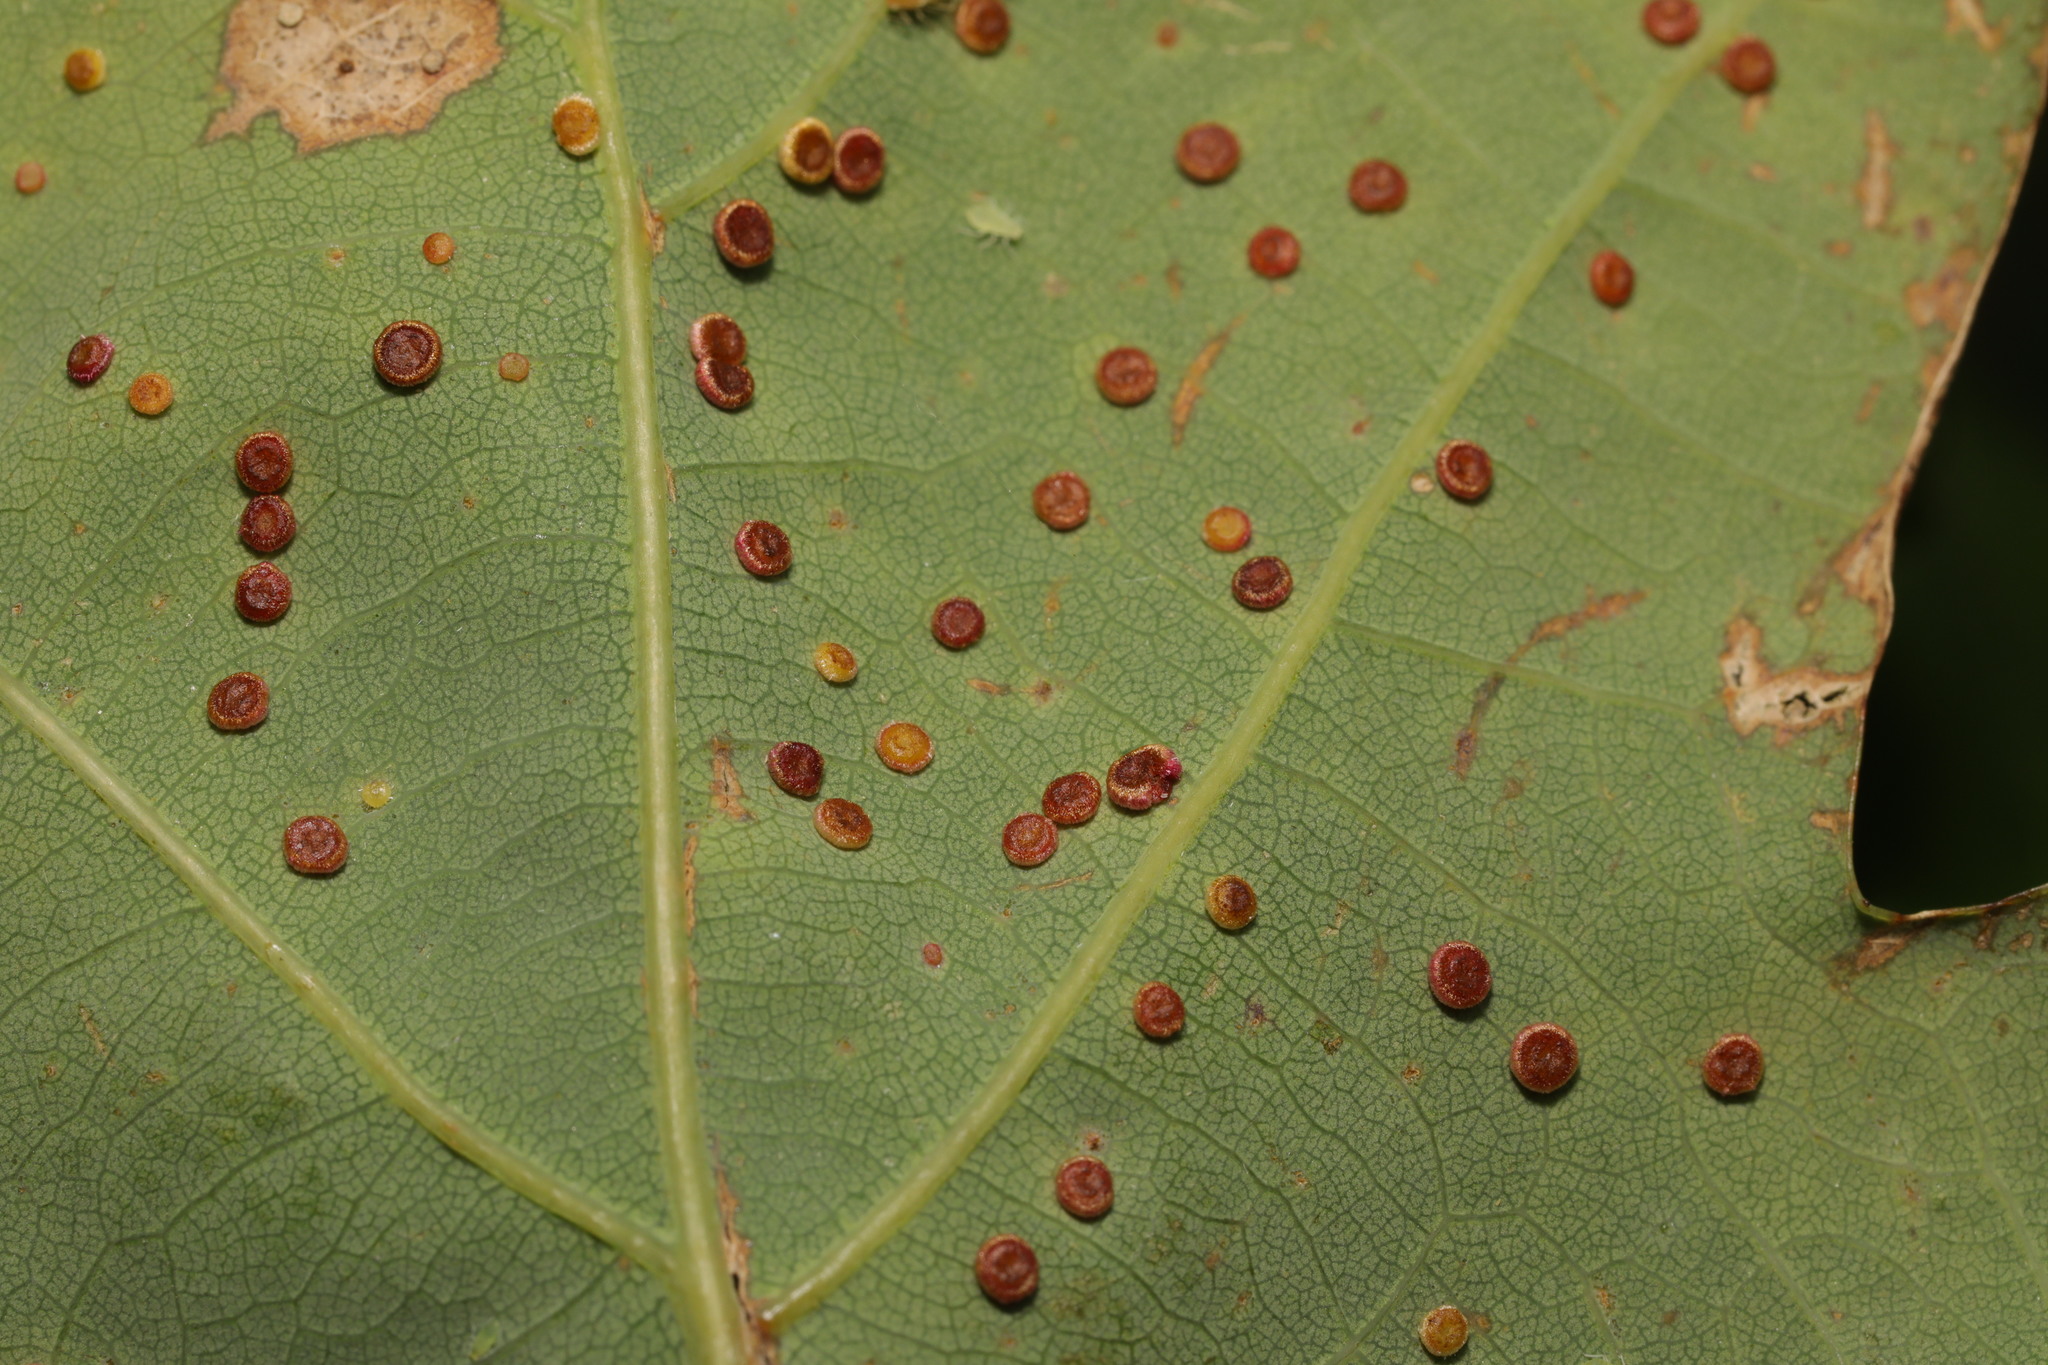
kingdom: Animalia
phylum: Arthropoda
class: Insecta
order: Hymenoptera
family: Cynipidae
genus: Neuroterus
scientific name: Neuroterus numismalis
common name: Silk-button spangle gall
